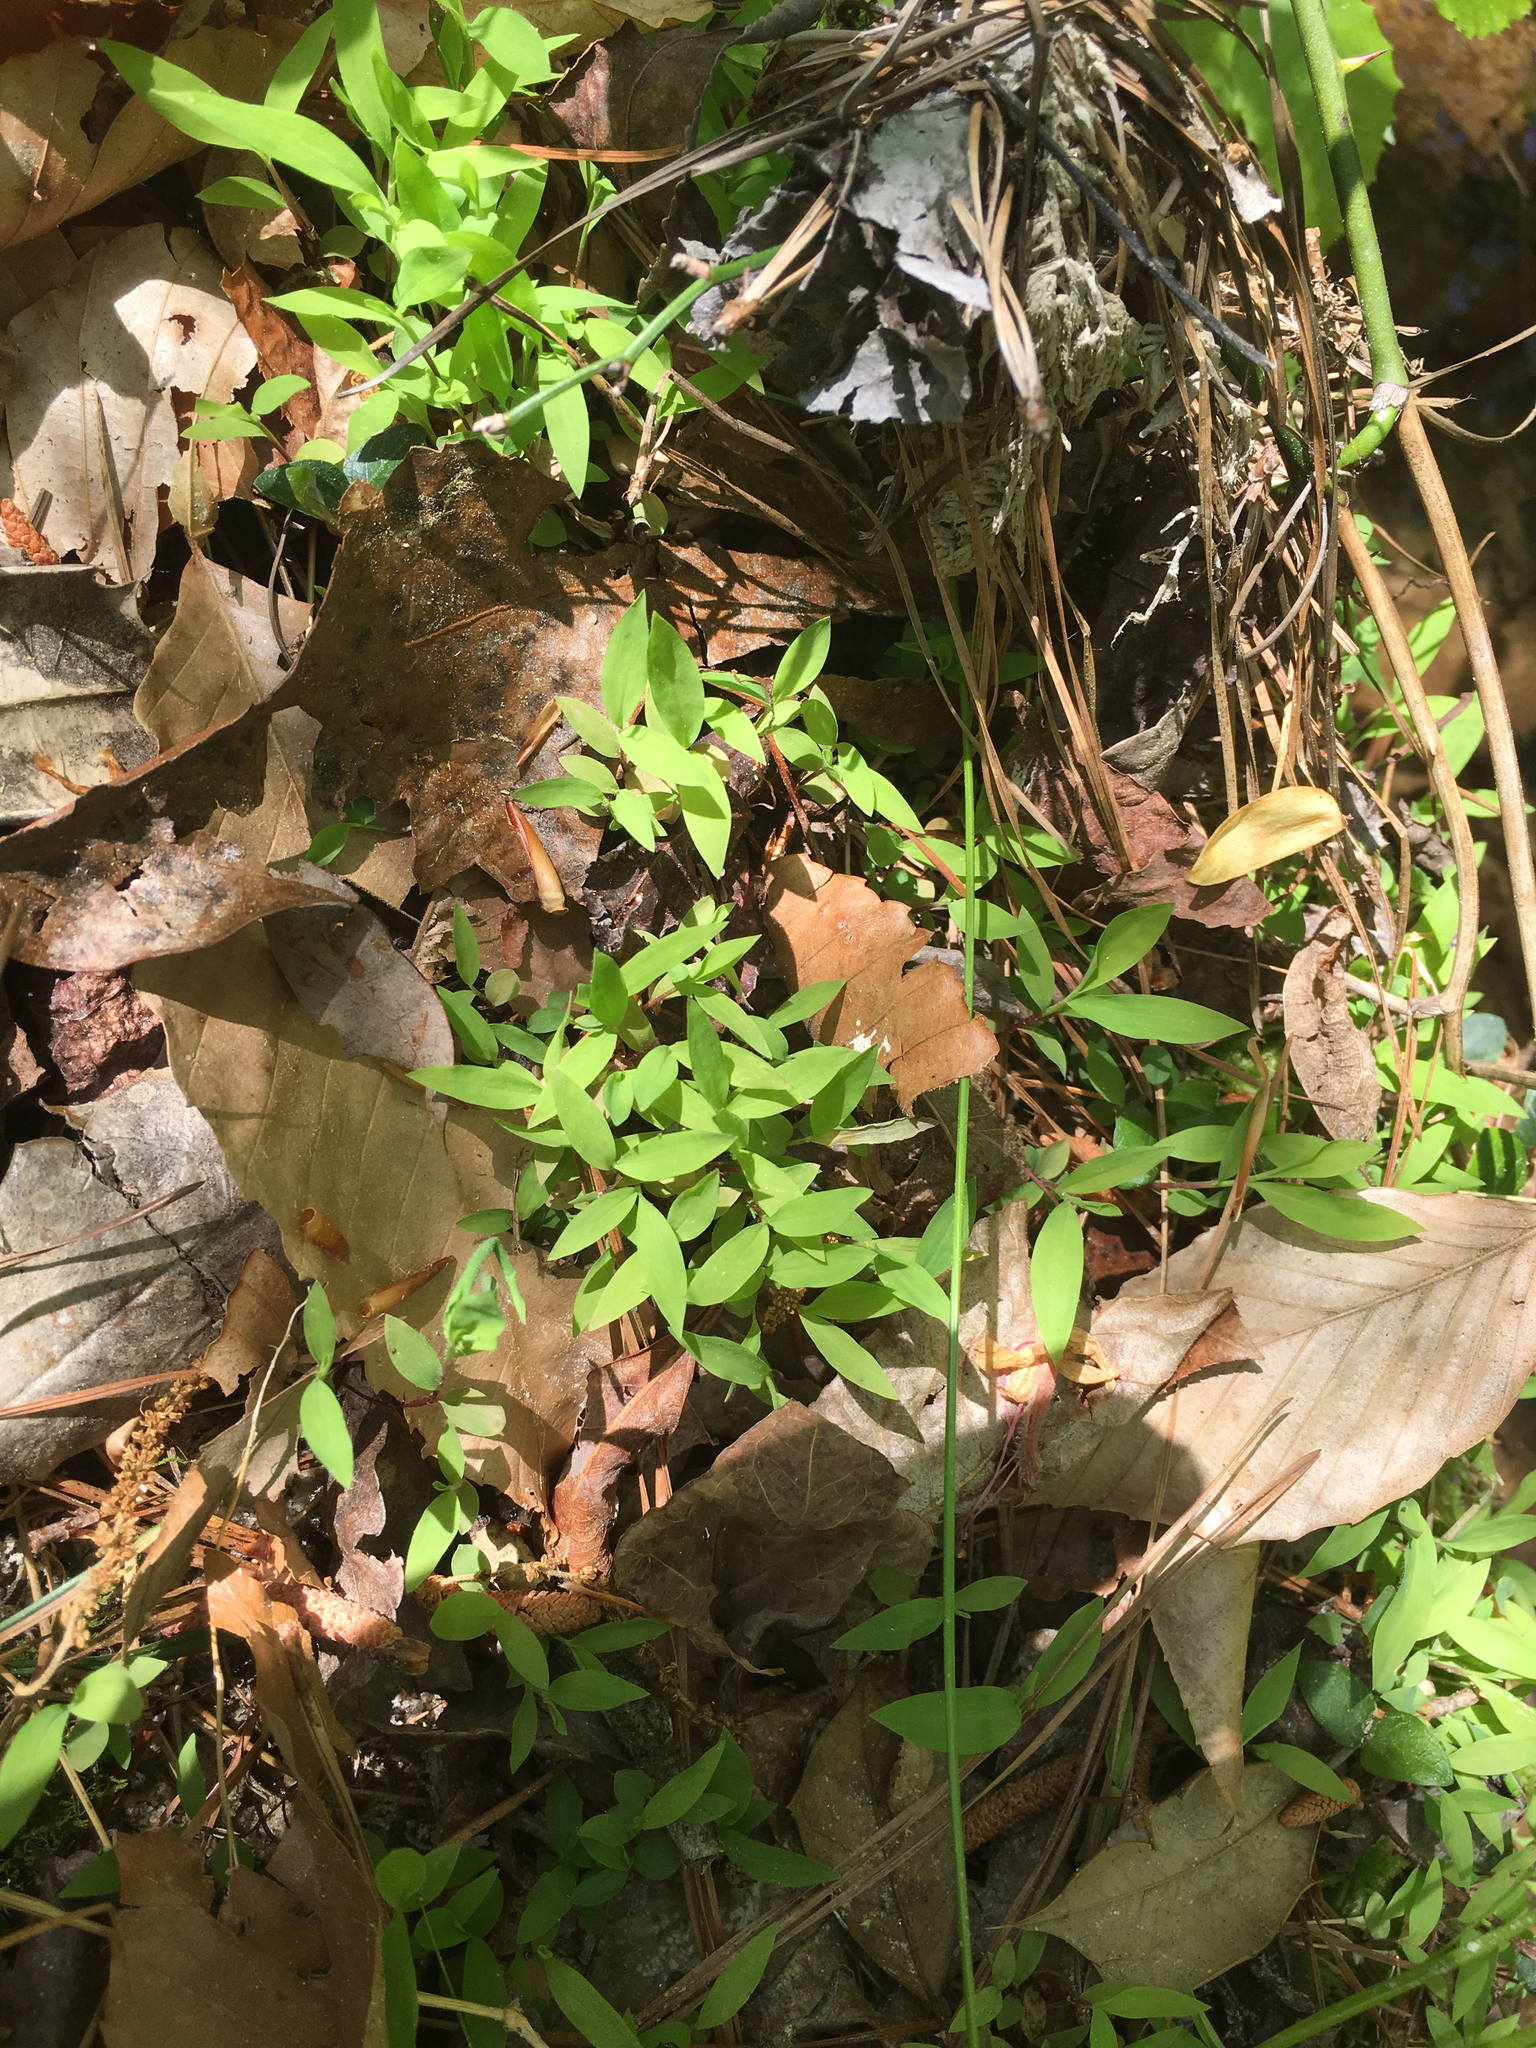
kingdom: Plantae
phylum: Tracheophyta
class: Liliopsida
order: Poales
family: Poaceae
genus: Microstegium
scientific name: Microstegium vimineum
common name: Japanese stiltgrass
